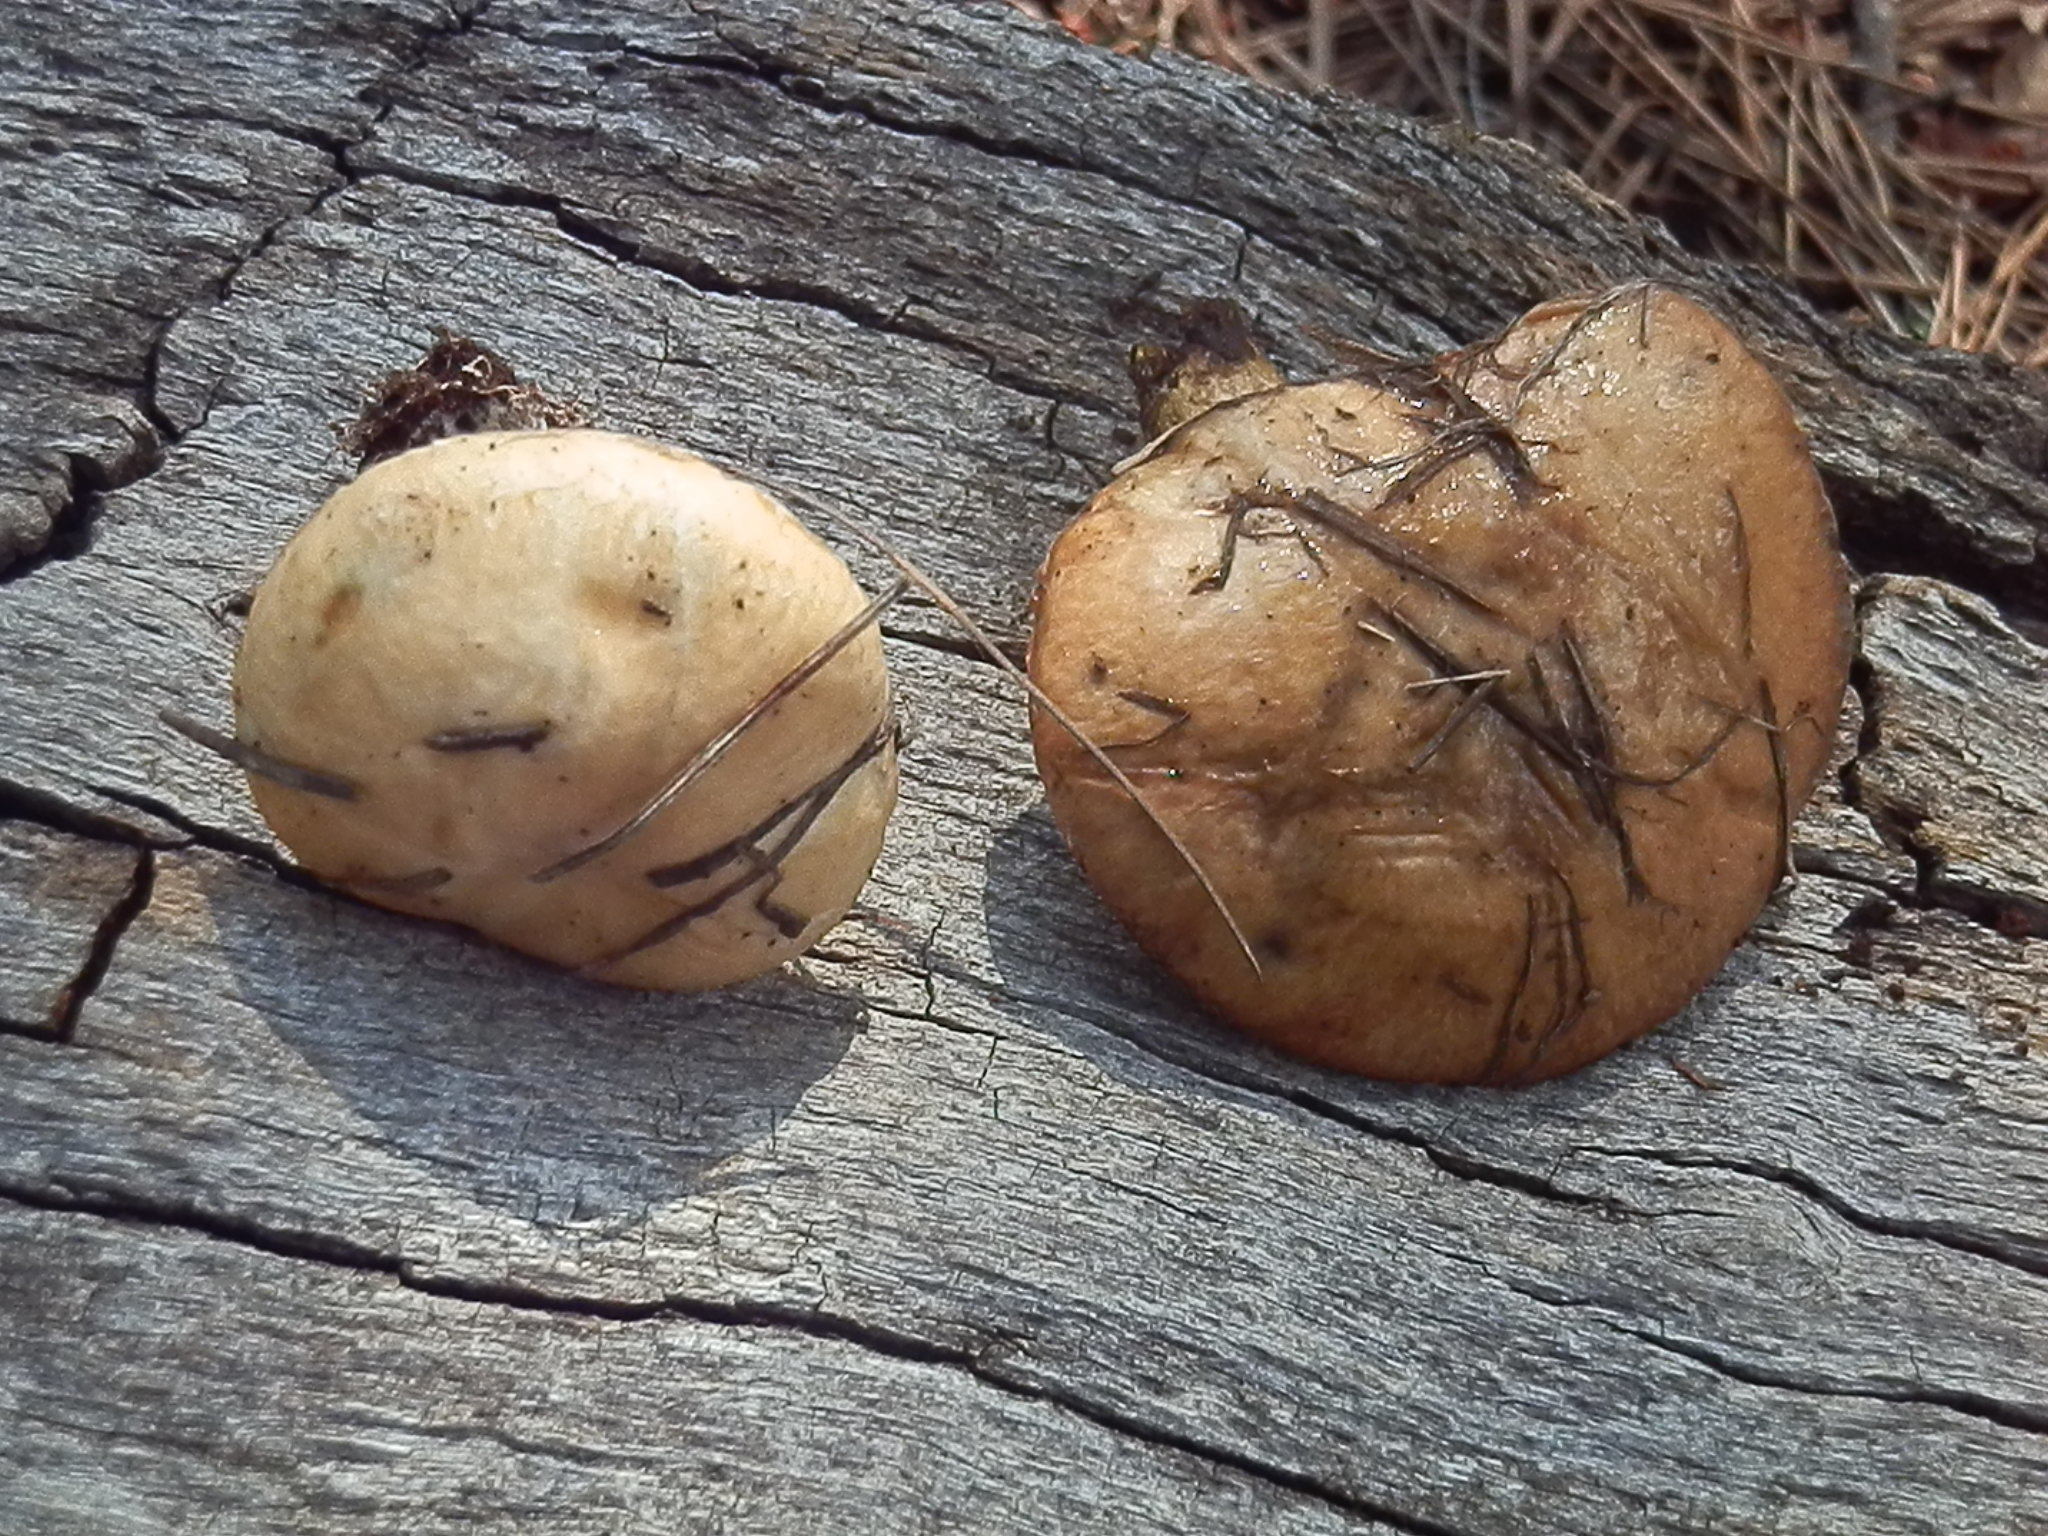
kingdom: Fungi
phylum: Basidiomycota
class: Agaricomycetes
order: Boletales
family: Suillaceae
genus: Suillus
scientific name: Suillus occidentalis
